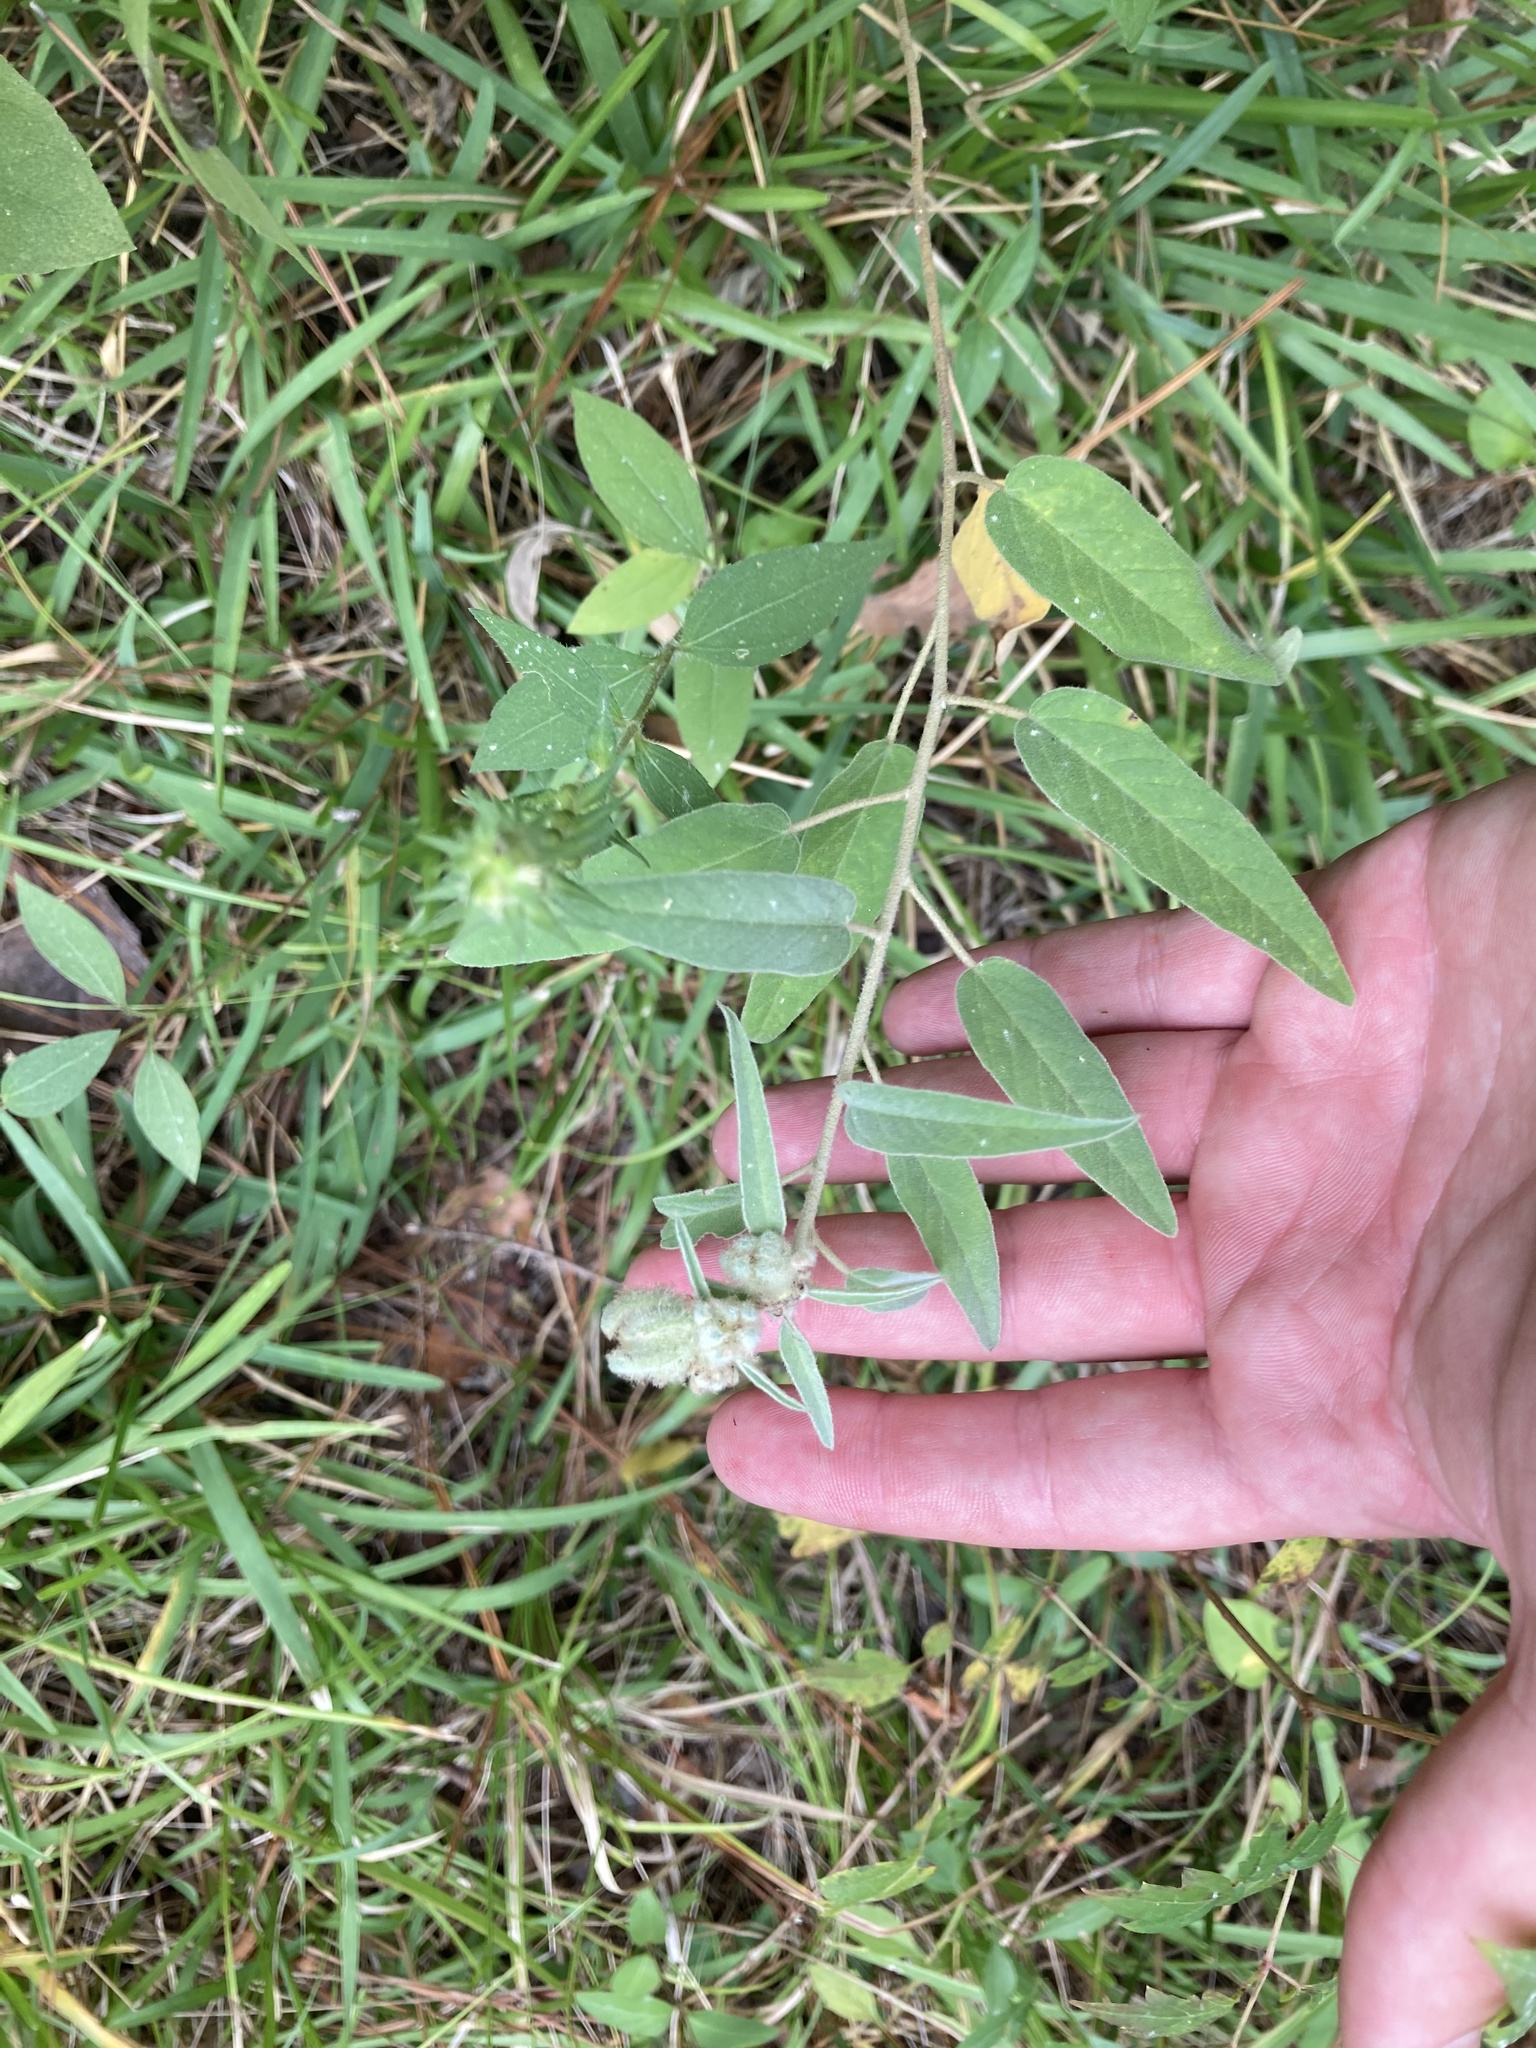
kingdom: Plantae
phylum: Tracheophyta
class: Magnoliopsida
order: Malpighiales
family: Euphorbiaceae
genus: Croton
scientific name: Croton lindheimeri
